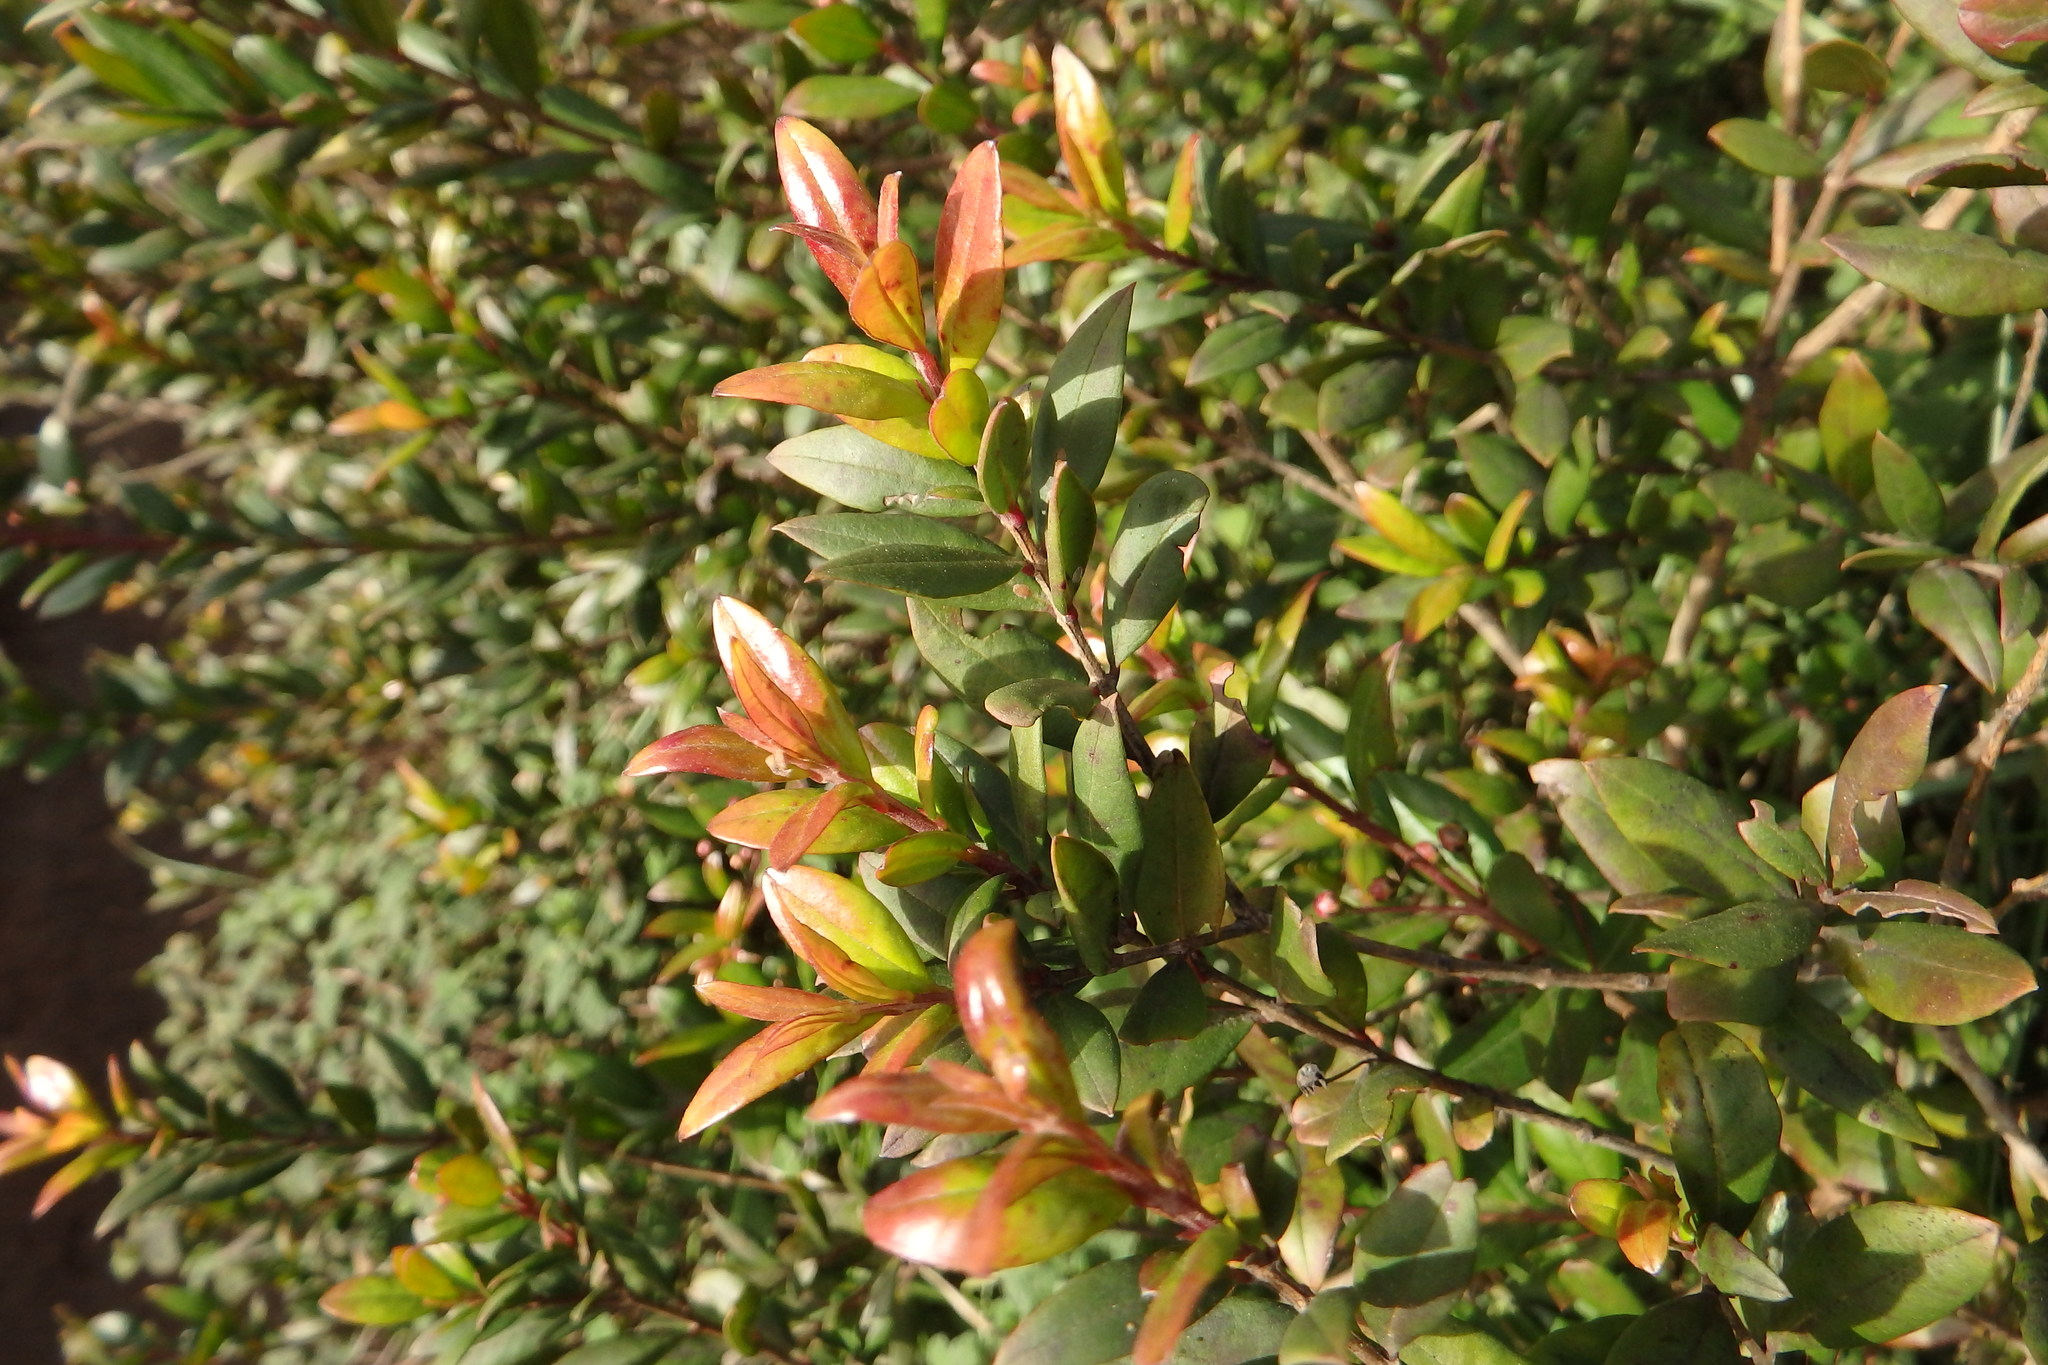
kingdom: Plantae
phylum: Tracheophyta
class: Magnoliopsida
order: Myrtales
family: Myrtaceae
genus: Myrtus
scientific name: Myrtus communis
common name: Myrtle
